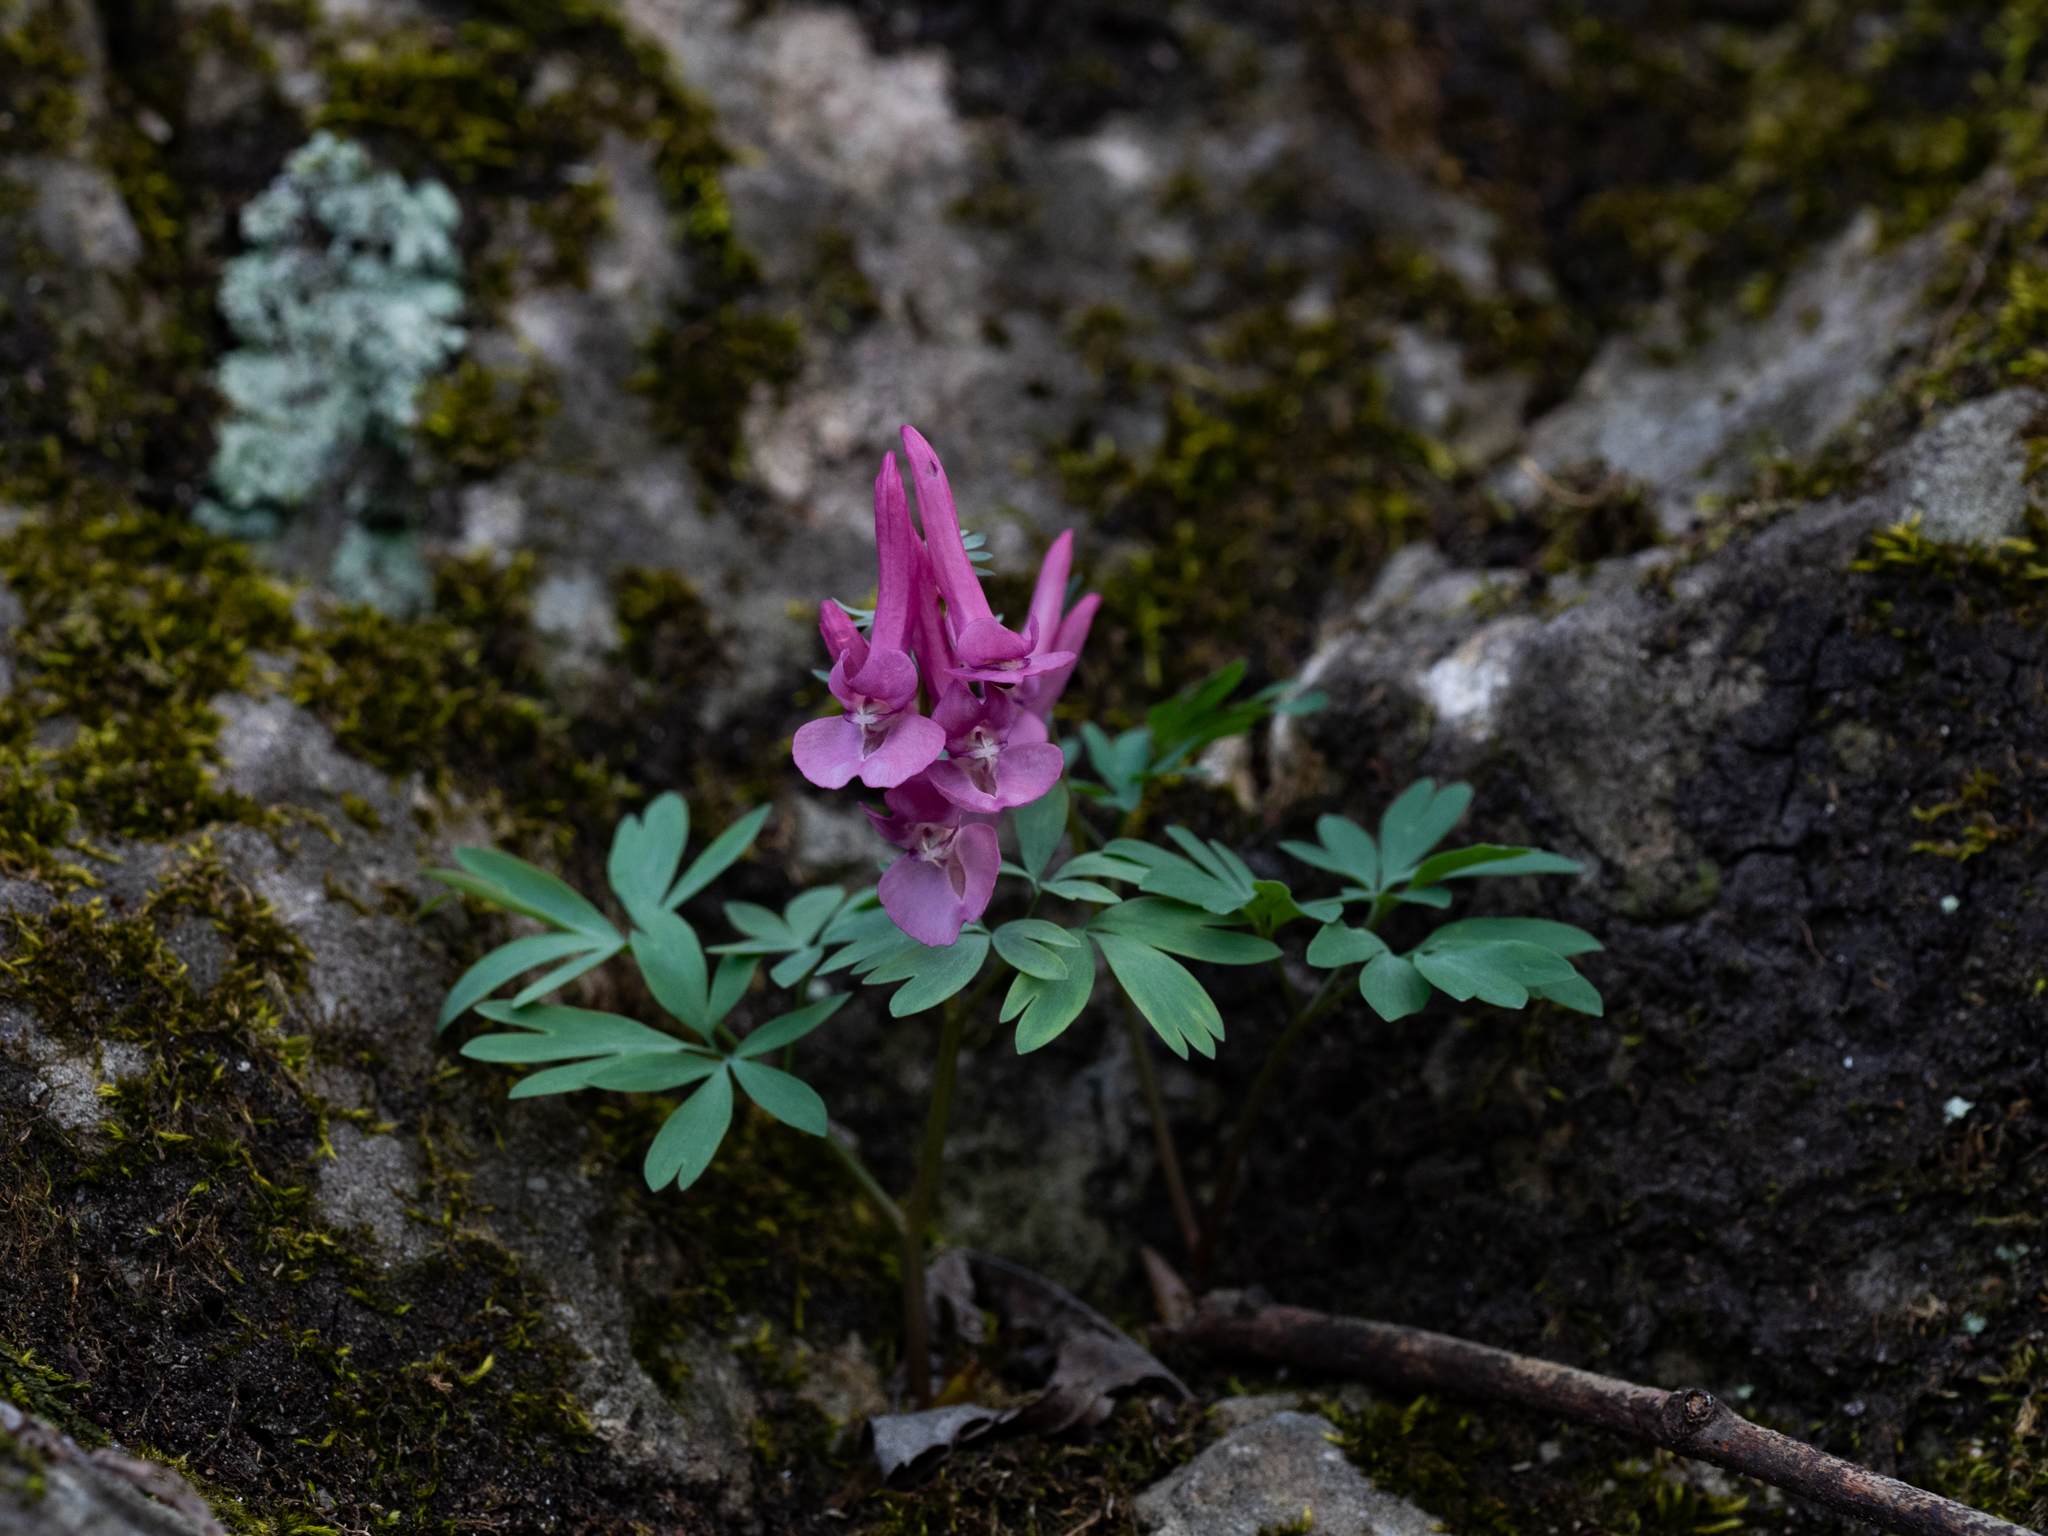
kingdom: Plantae
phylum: Tracheophyta
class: Magnoliopsida
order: Ranunculales
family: Papaveraceae
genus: Corydalis
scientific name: Corydalis solida
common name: Bird-in-a-bush
